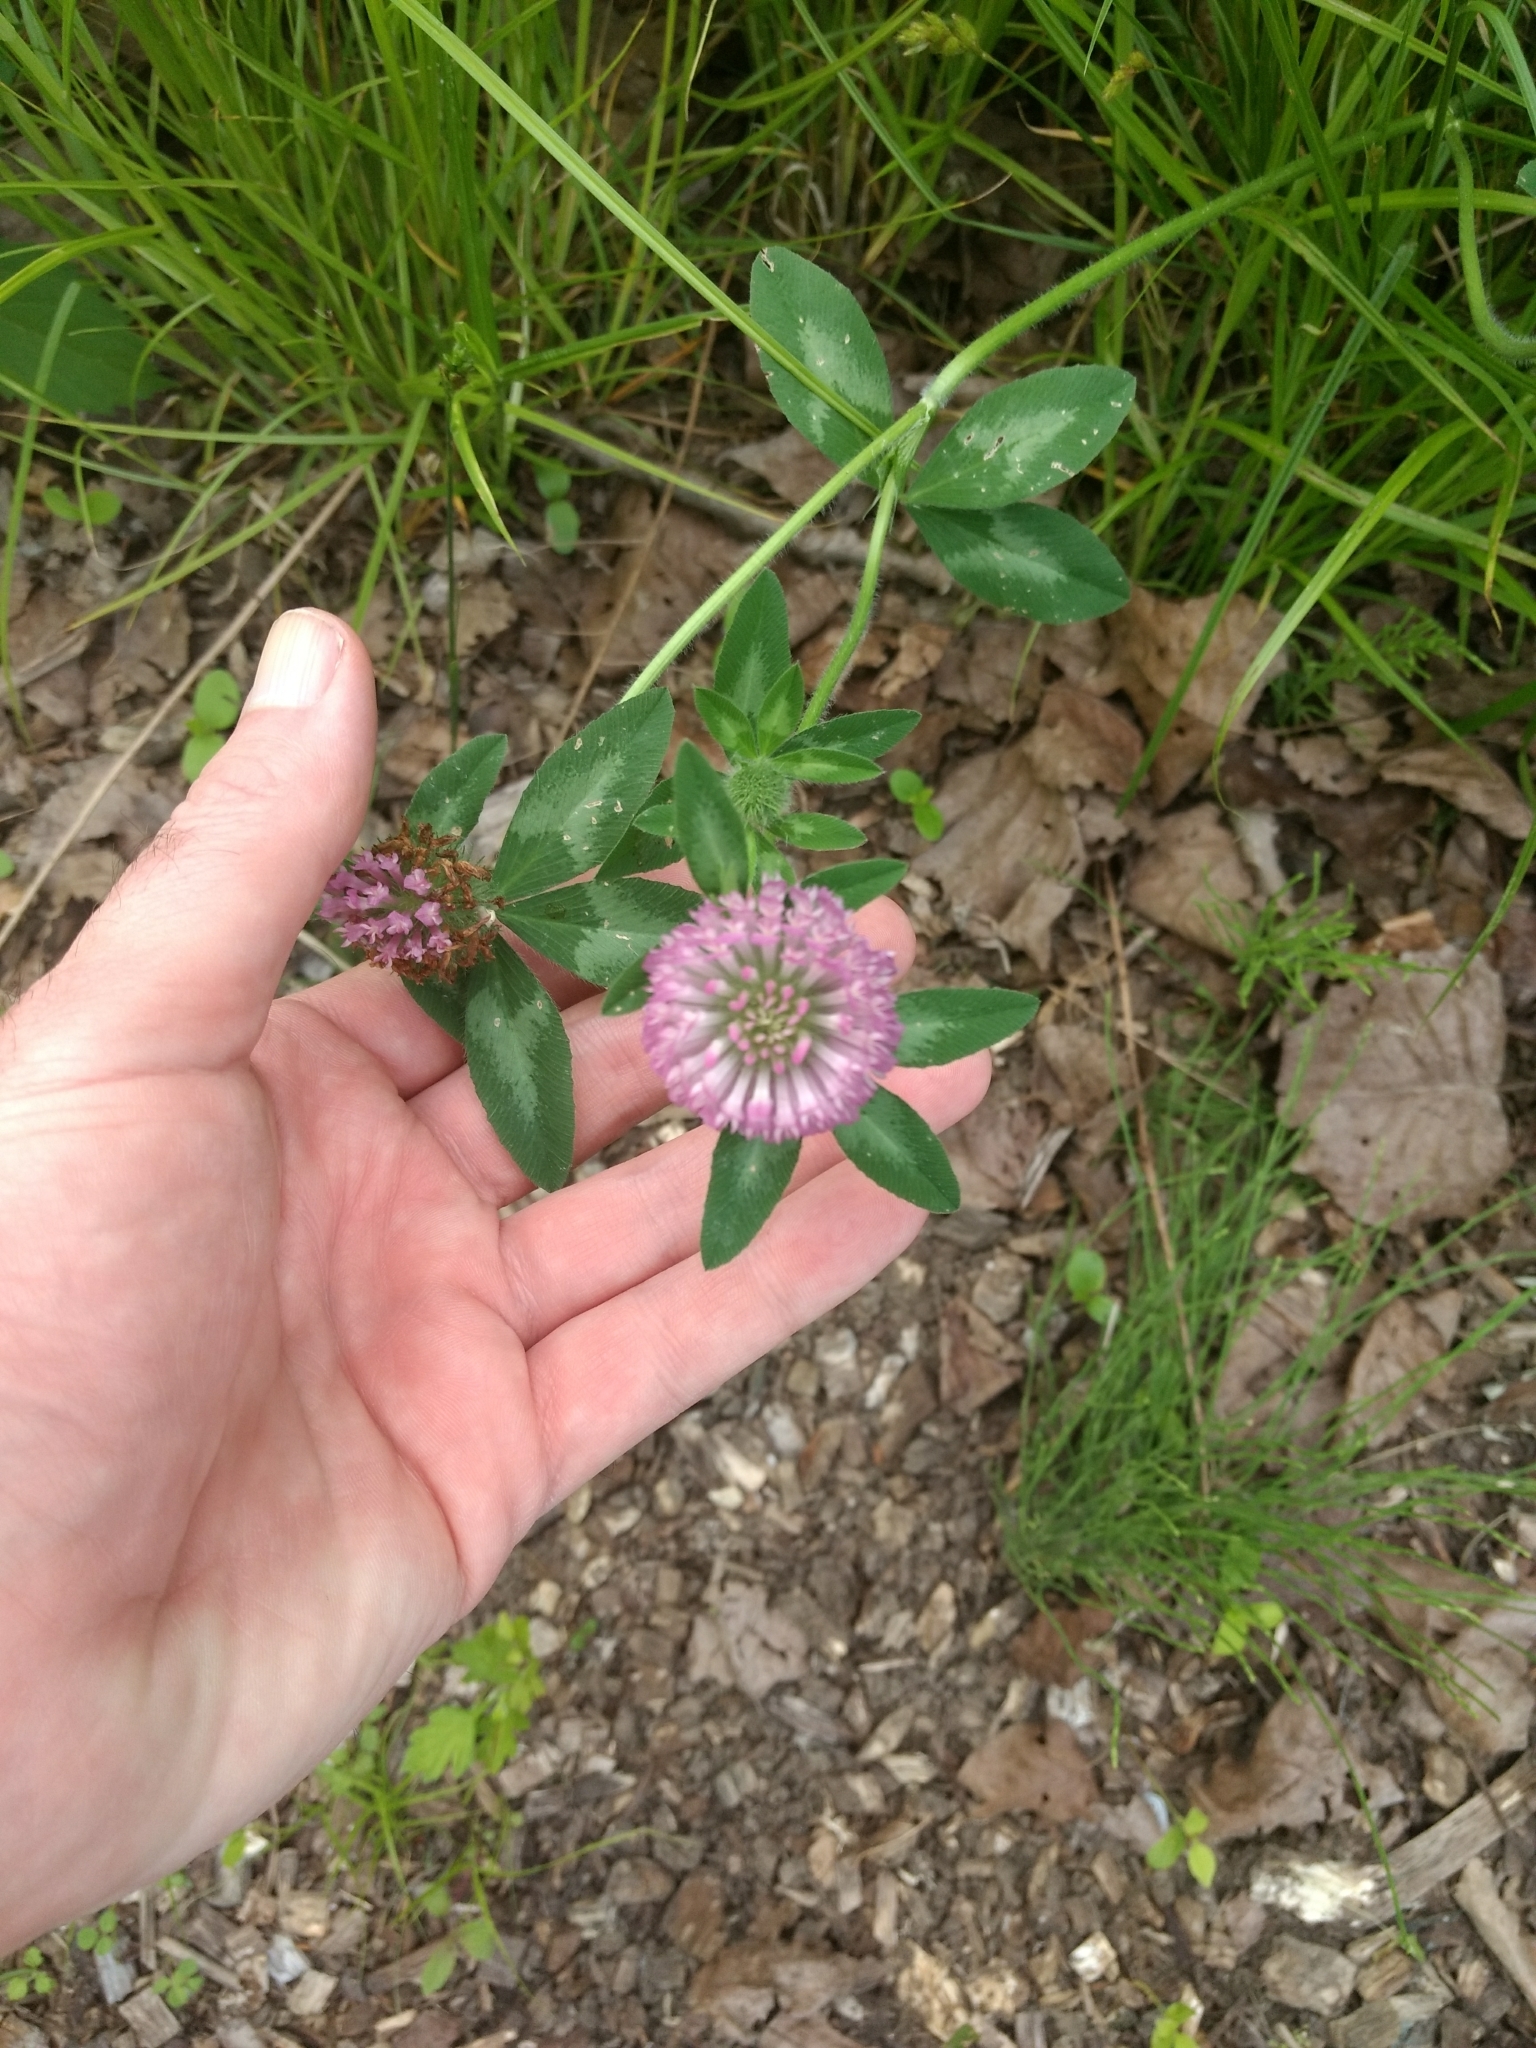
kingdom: Plantae
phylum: Tracheophyta
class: Magnoliopsida
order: Fabales
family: Fabaceae
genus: Trifolium
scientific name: Trifolium pratense
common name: Red clover
